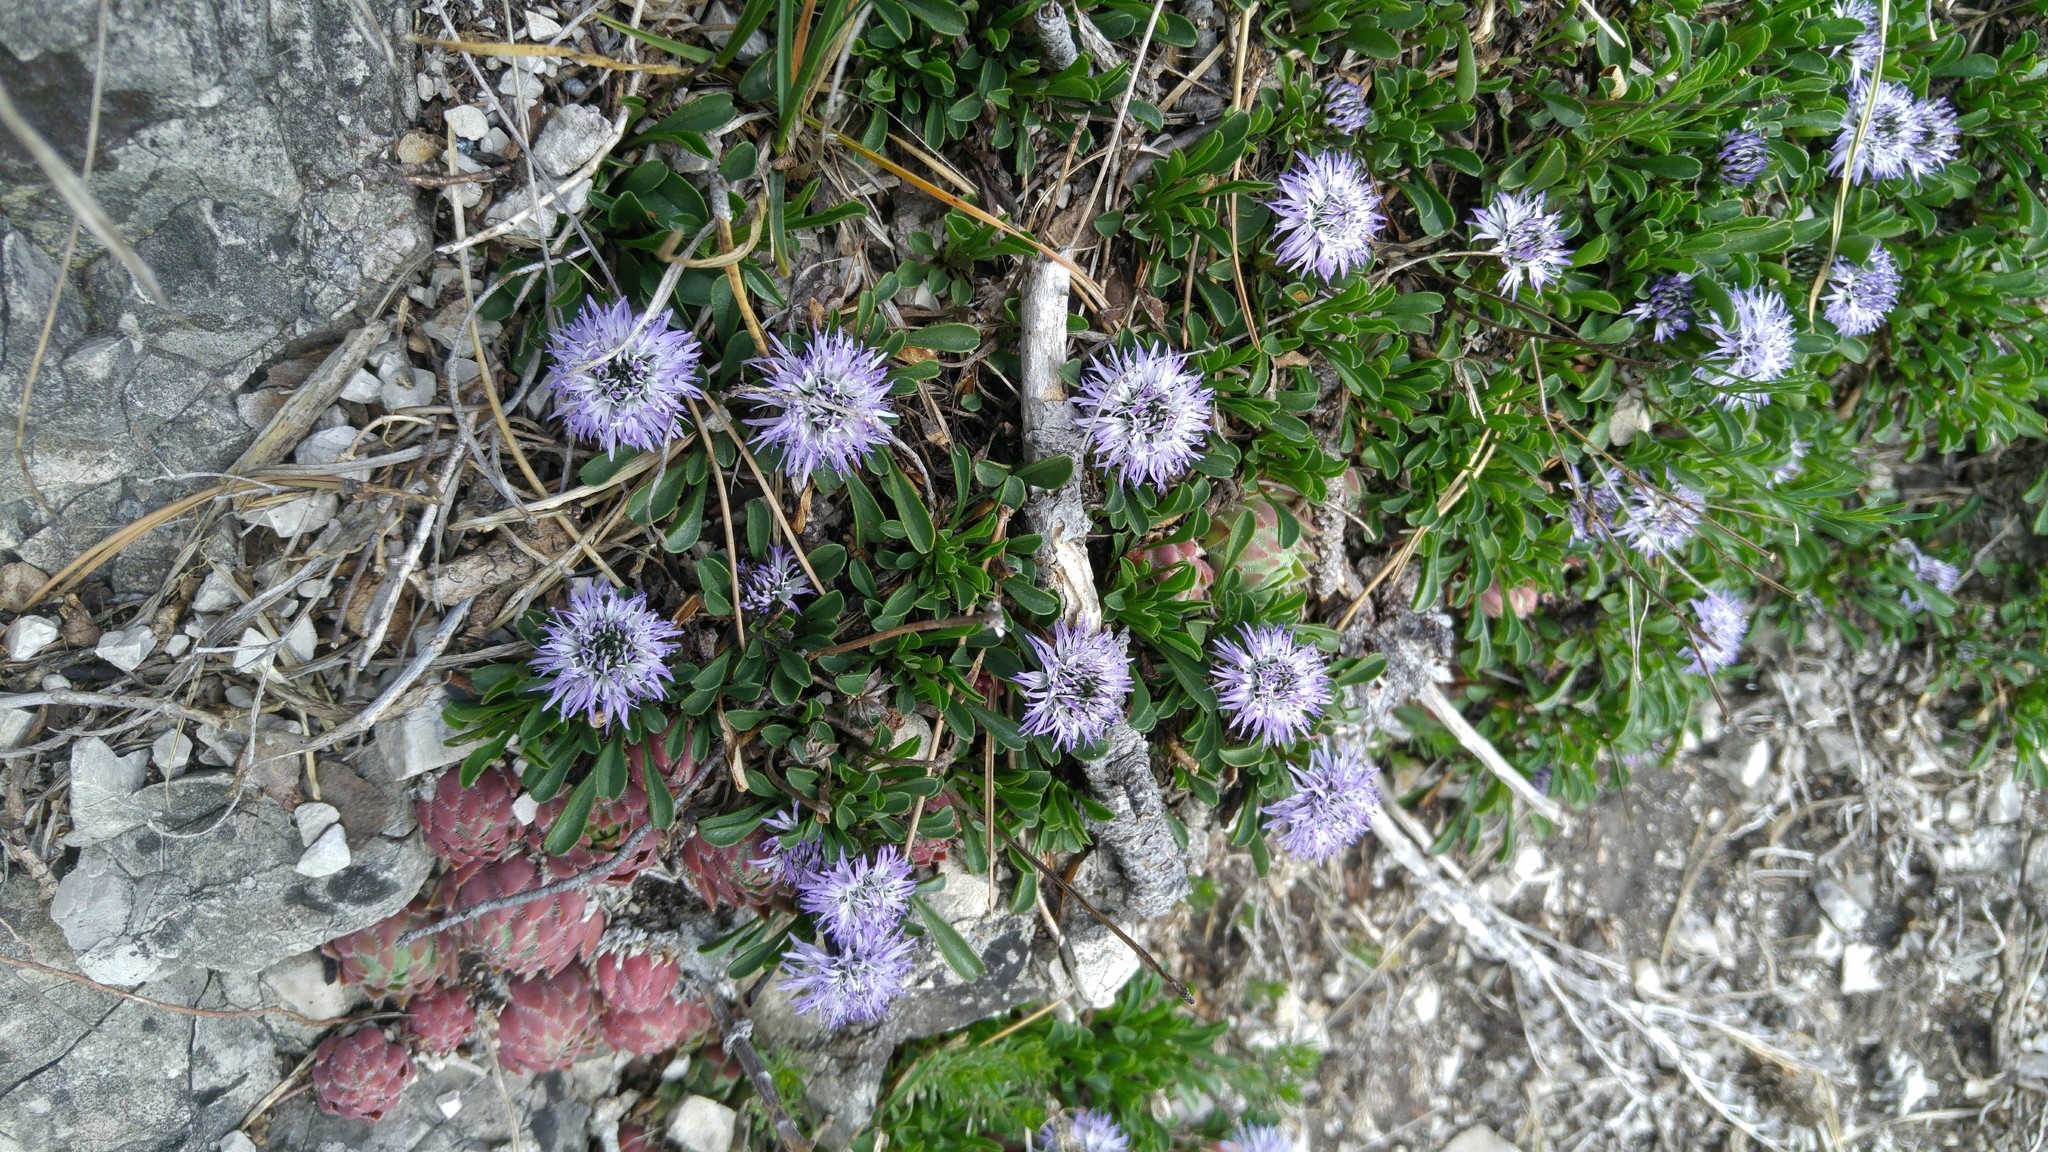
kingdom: Plantae
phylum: Tracheophyta
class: Magnoliopsida
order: Lamiales
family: Plantaginaceae
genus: Globularia
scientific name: Globularia cordifolia
